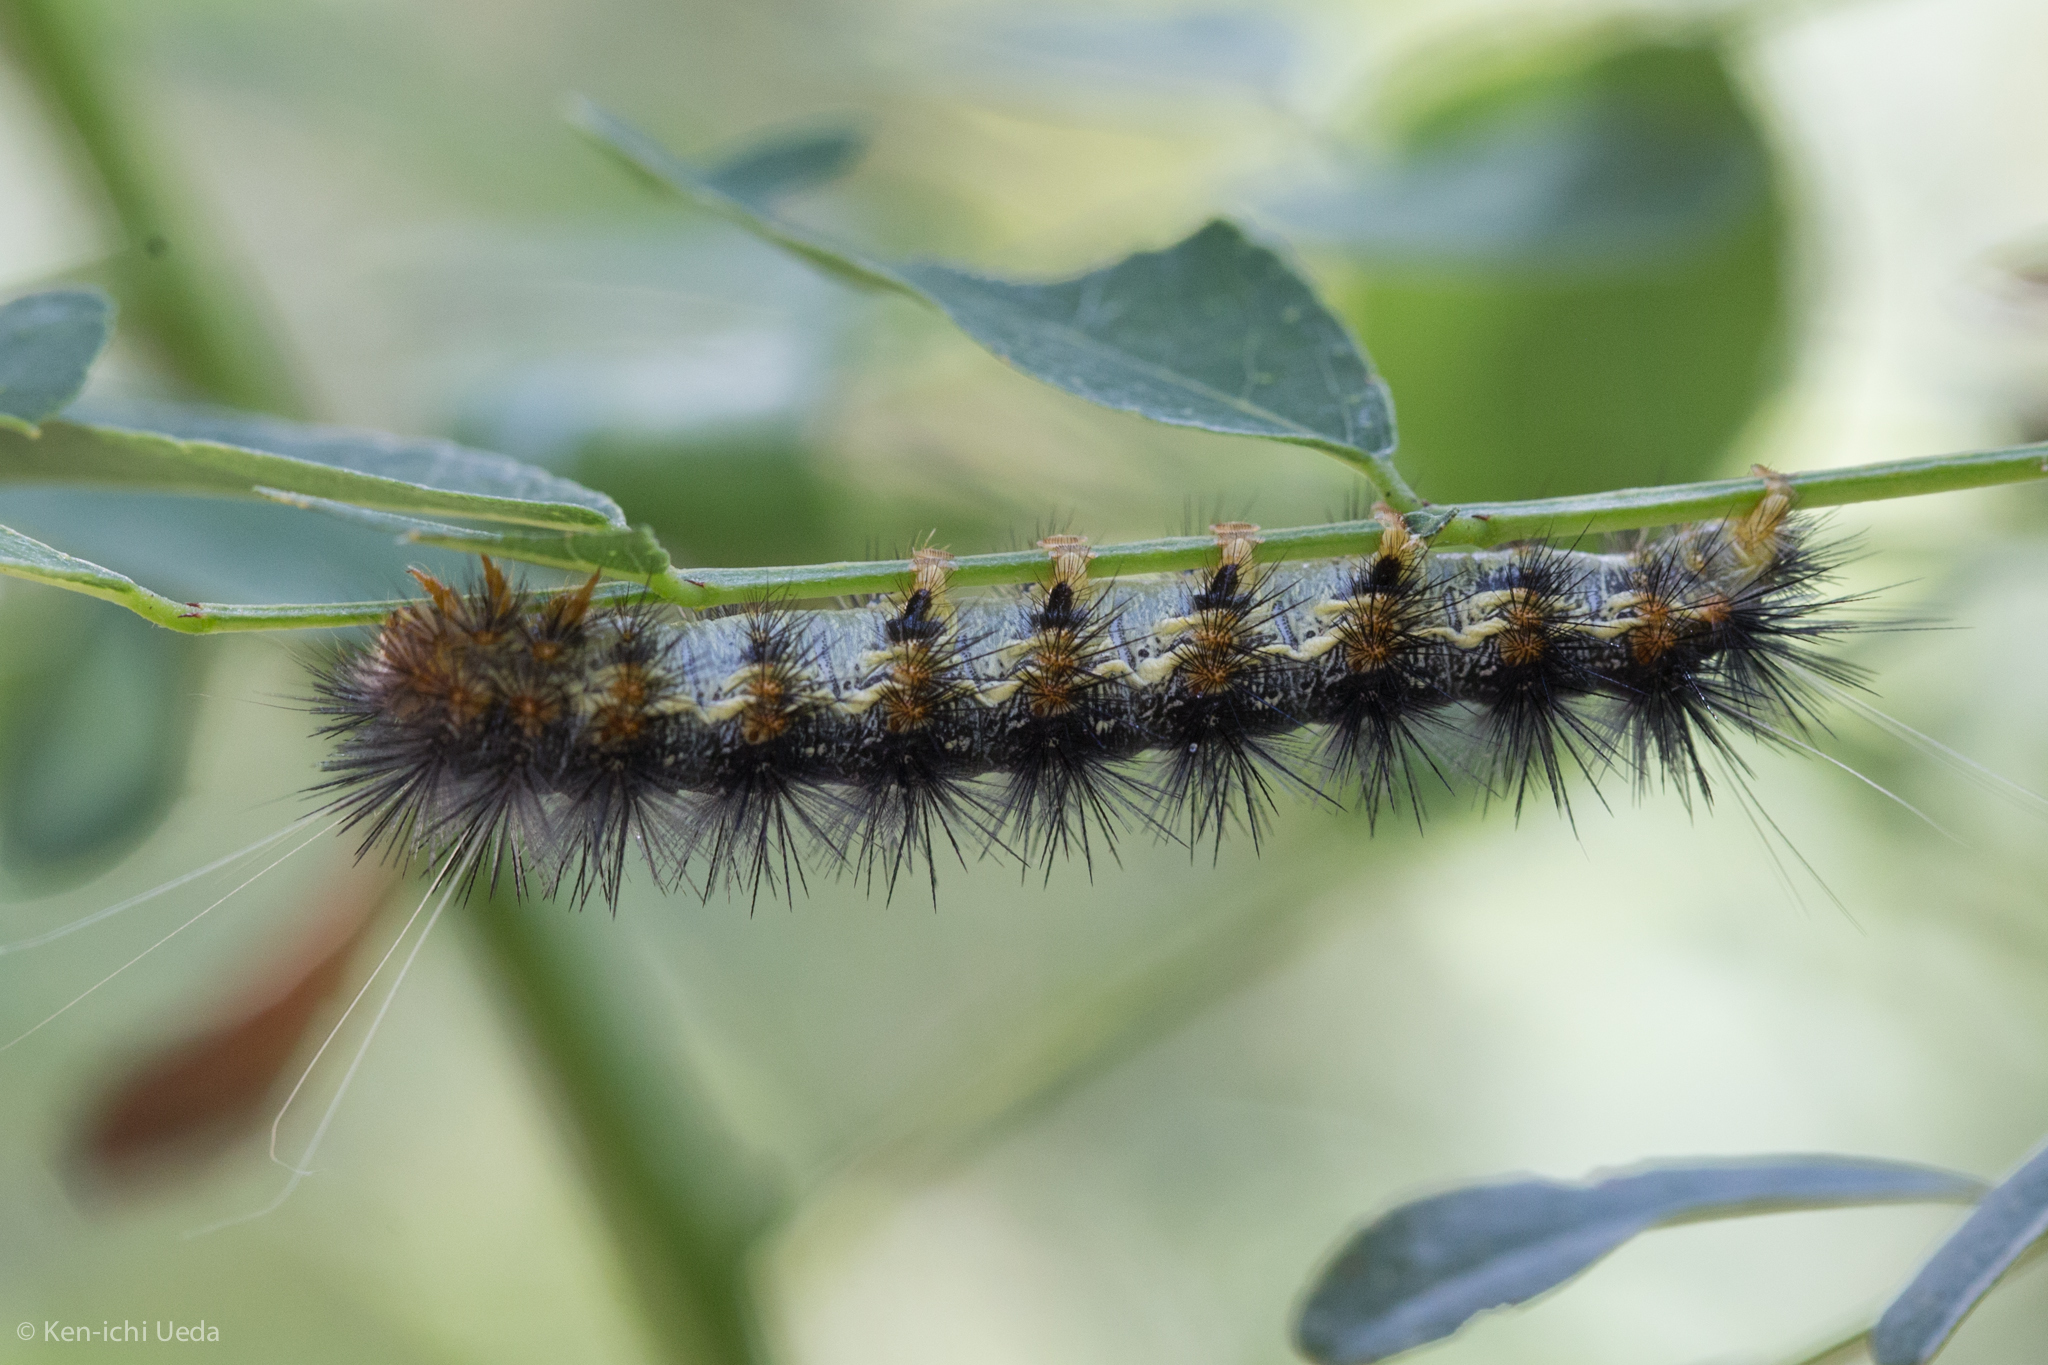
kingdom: Animalia
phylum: Arthropoda
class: Insecta
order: Lepidoptera
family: Erebidae
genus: Hypercompe
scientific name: Hypercompe suffusa
